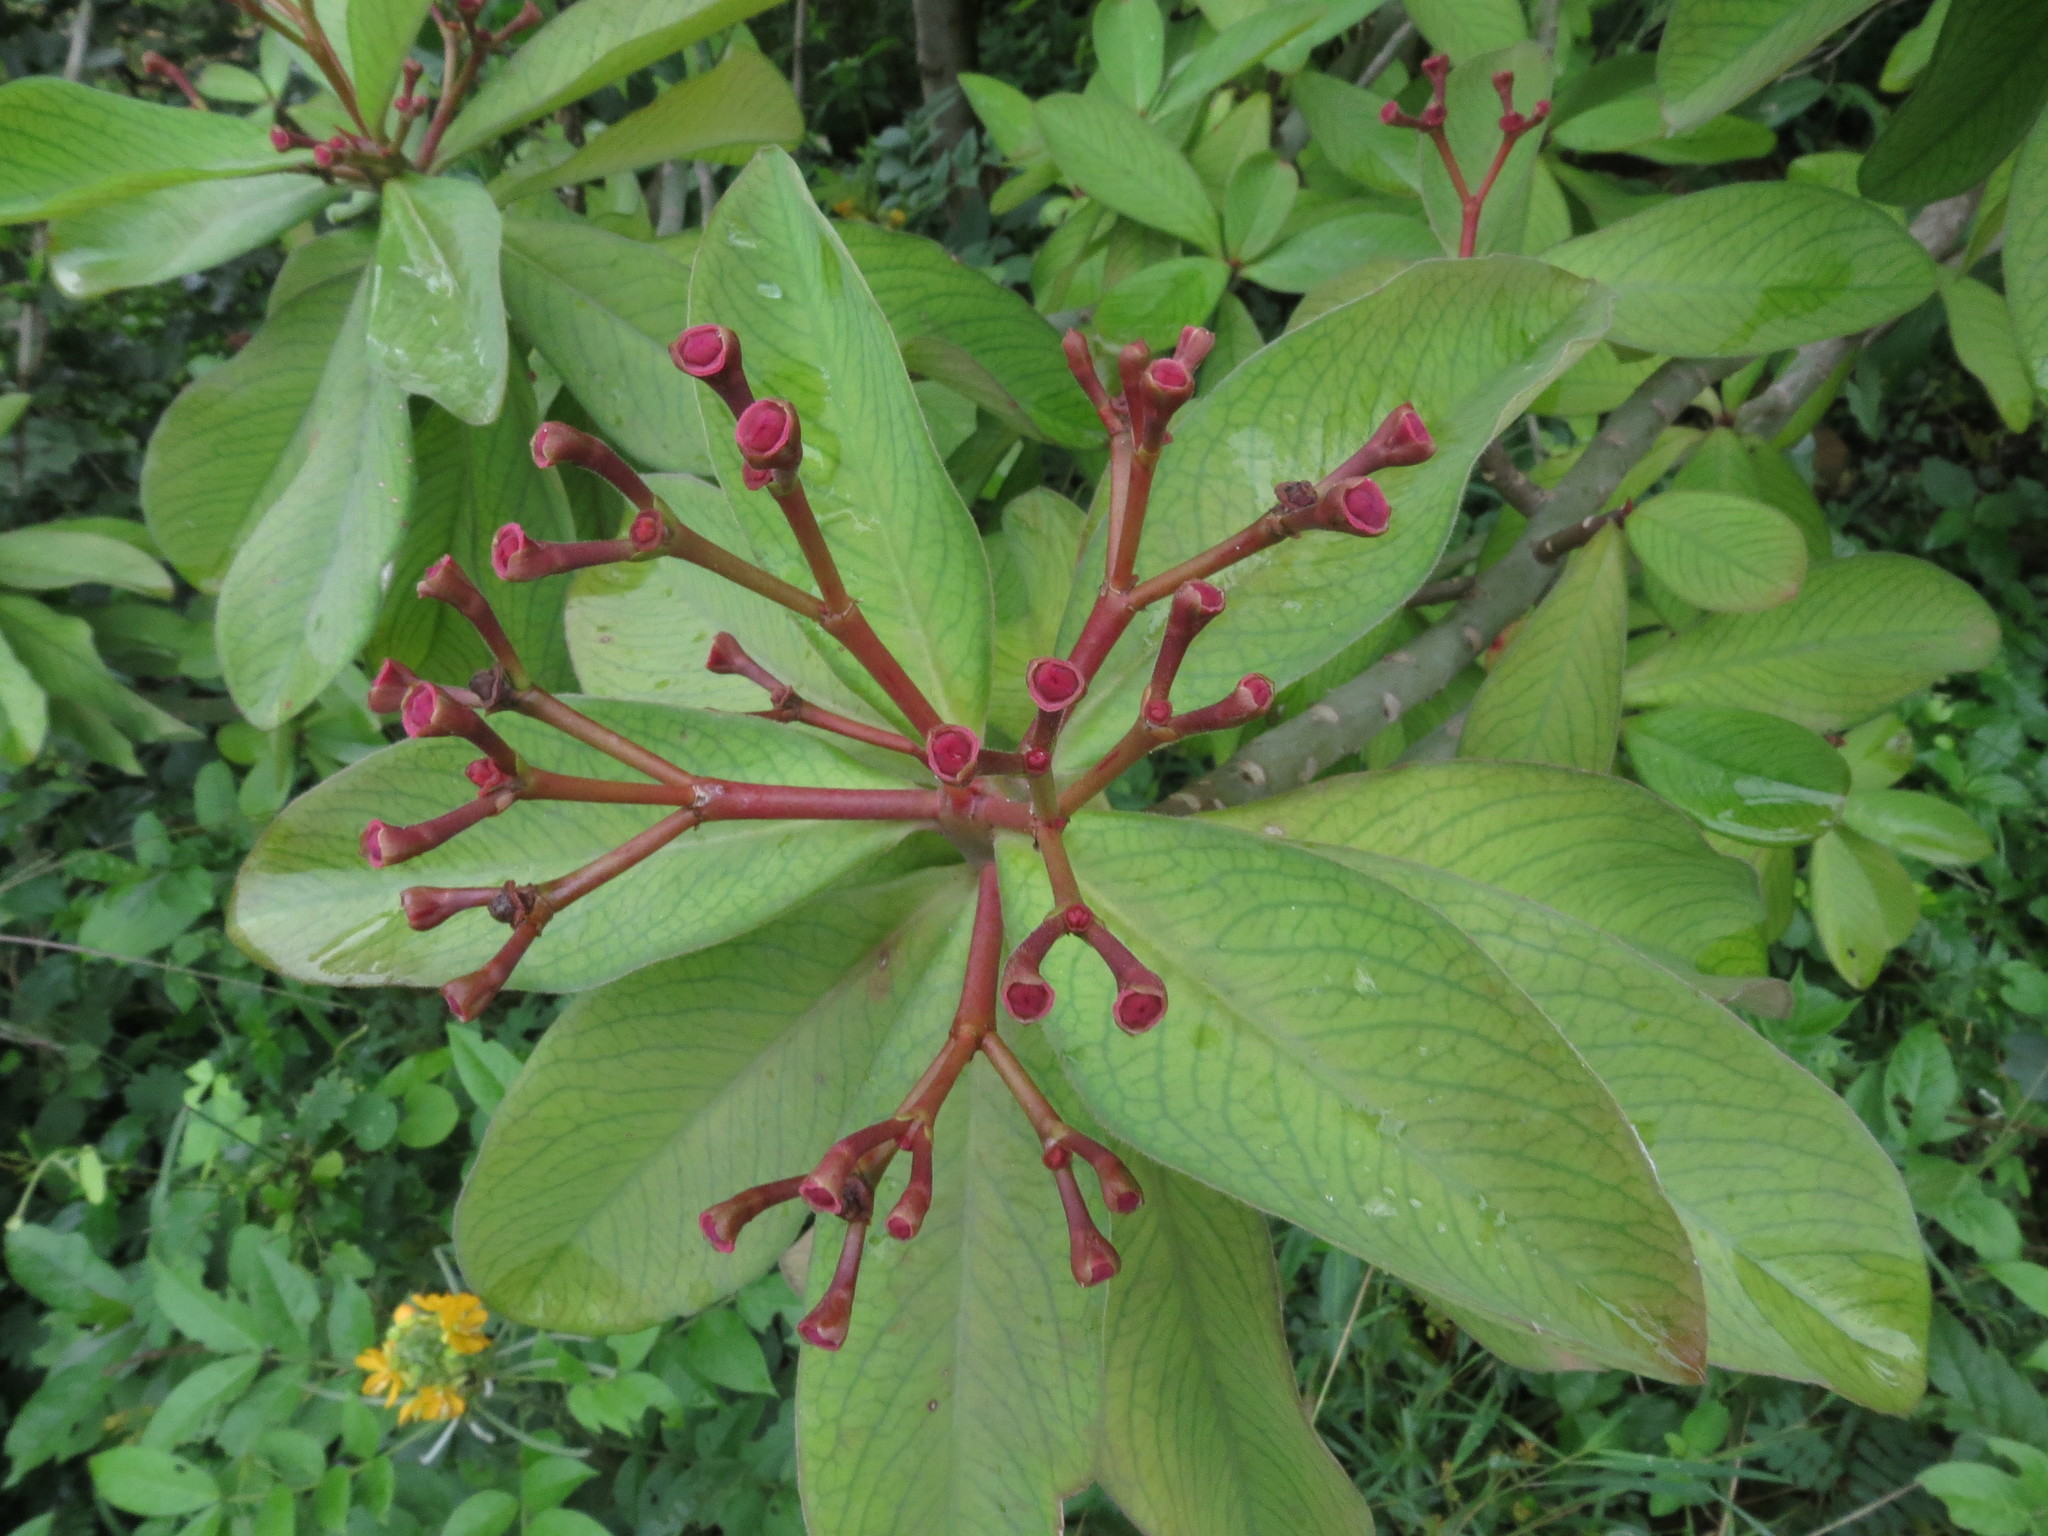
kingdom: Plantae
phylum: Tracheophyta
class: Magnoliopsida
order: Malpighiales
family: Euphorbiaceae
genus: Euphorbia
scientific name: Euphorbia umbellata
